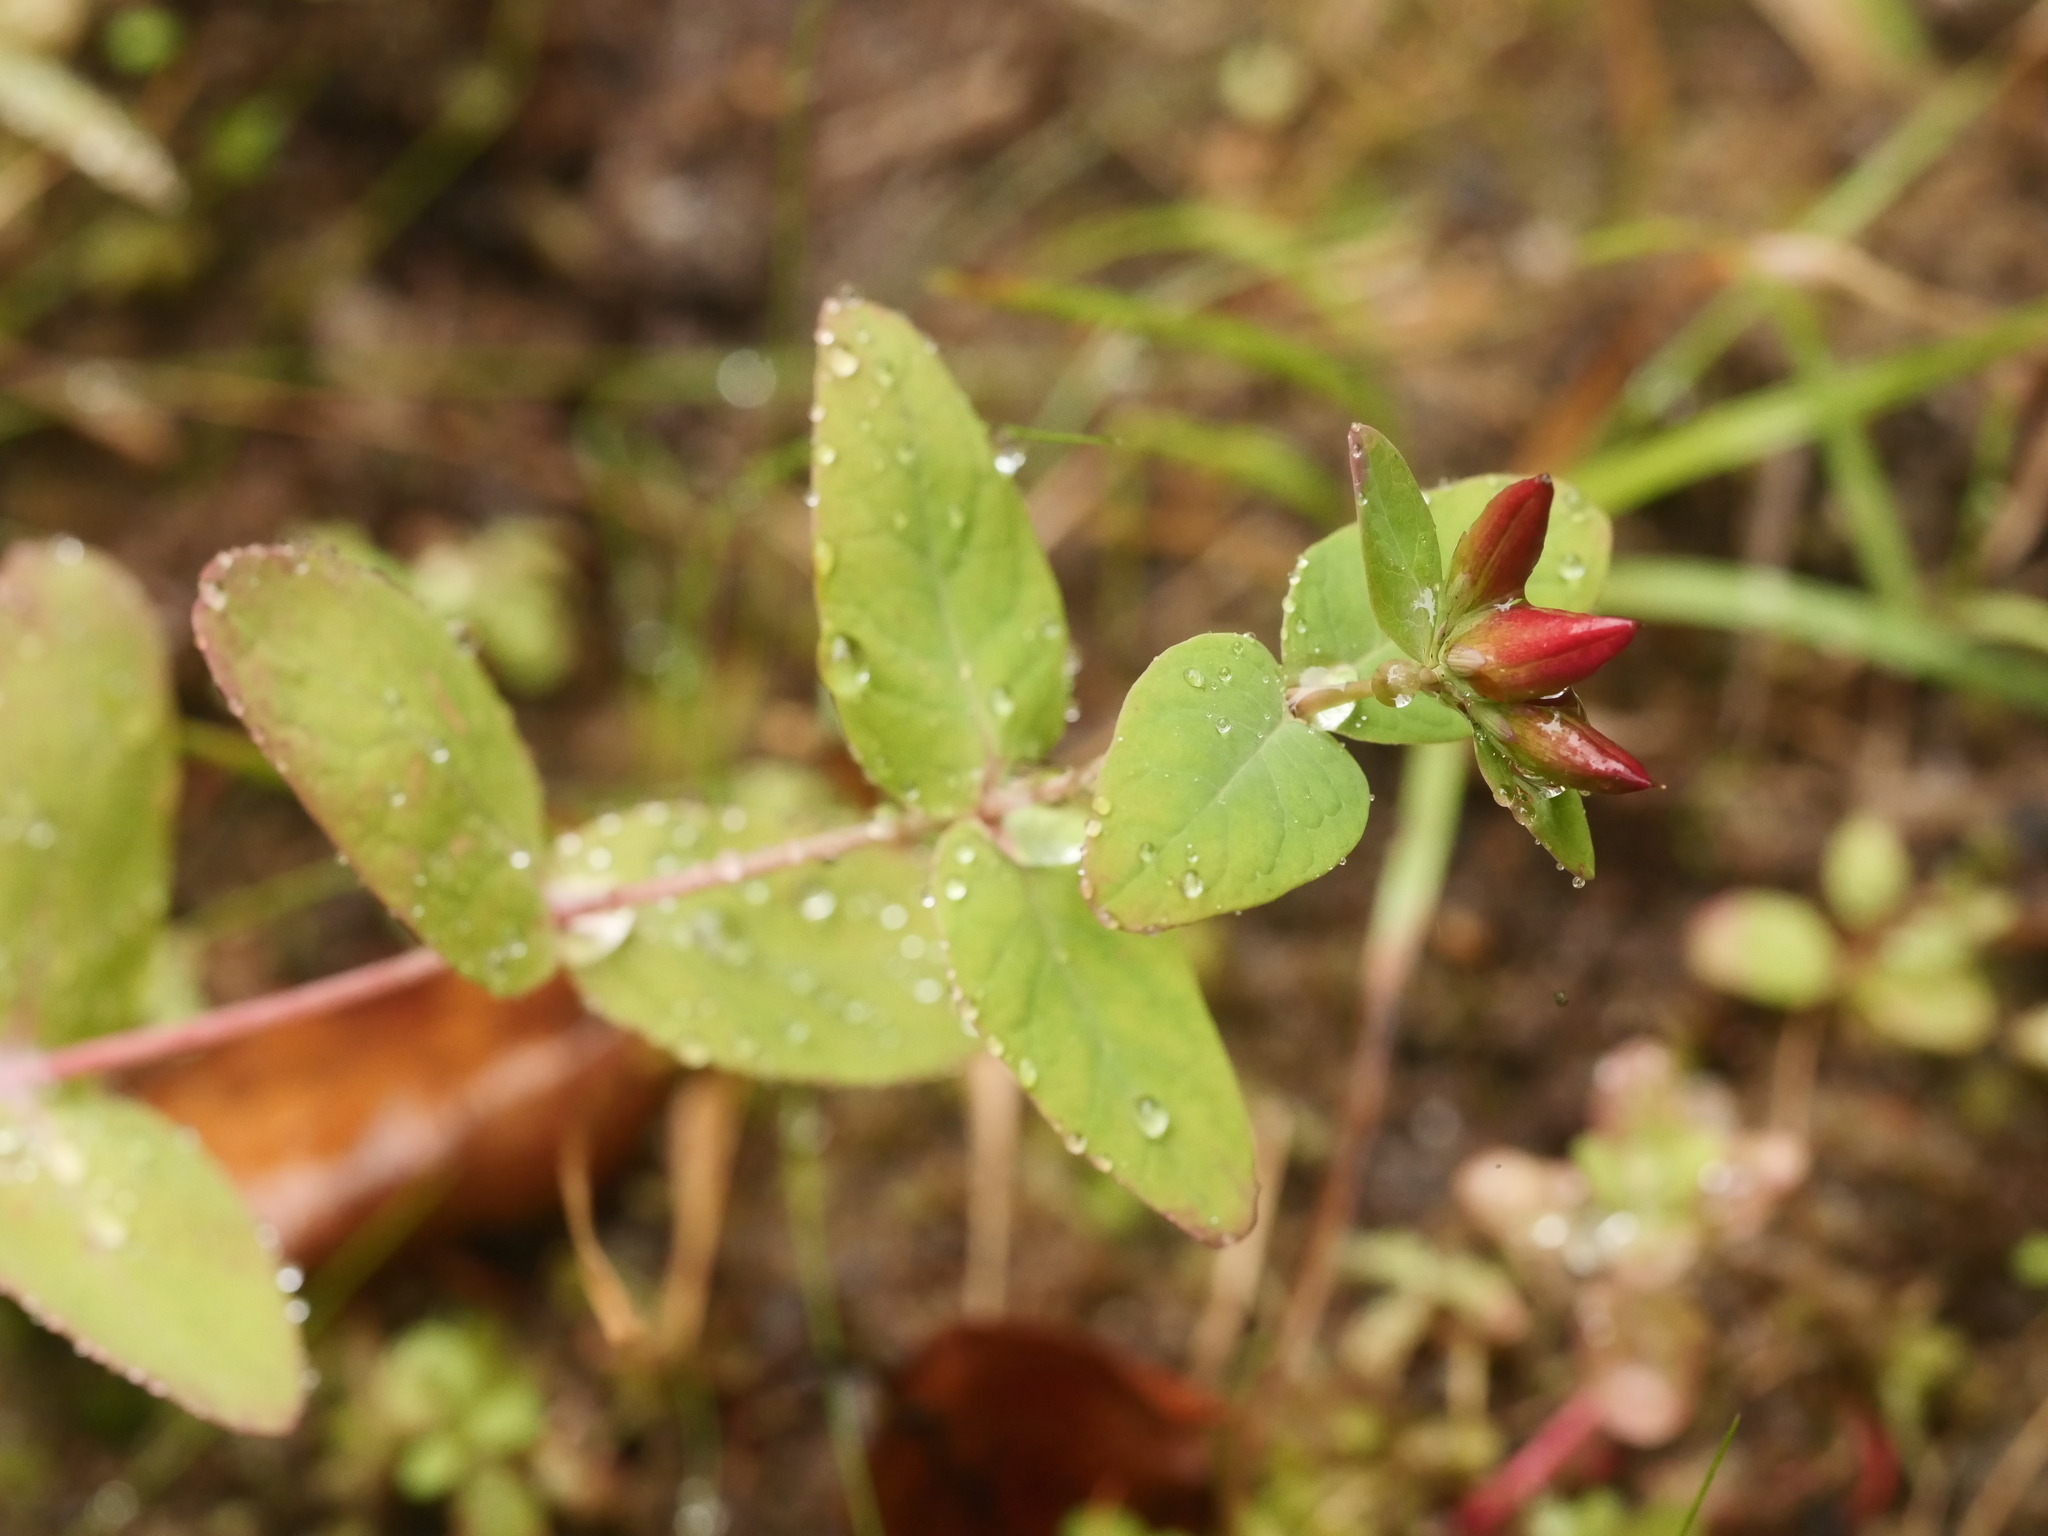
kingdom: Plantae
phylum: Tracheophyta
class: Magnoliopsida
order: Malpighiales
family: Hypericaceae
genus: Triadenum
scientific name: Triadenum fraseri
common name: Fraser's marsh st. johnswort
